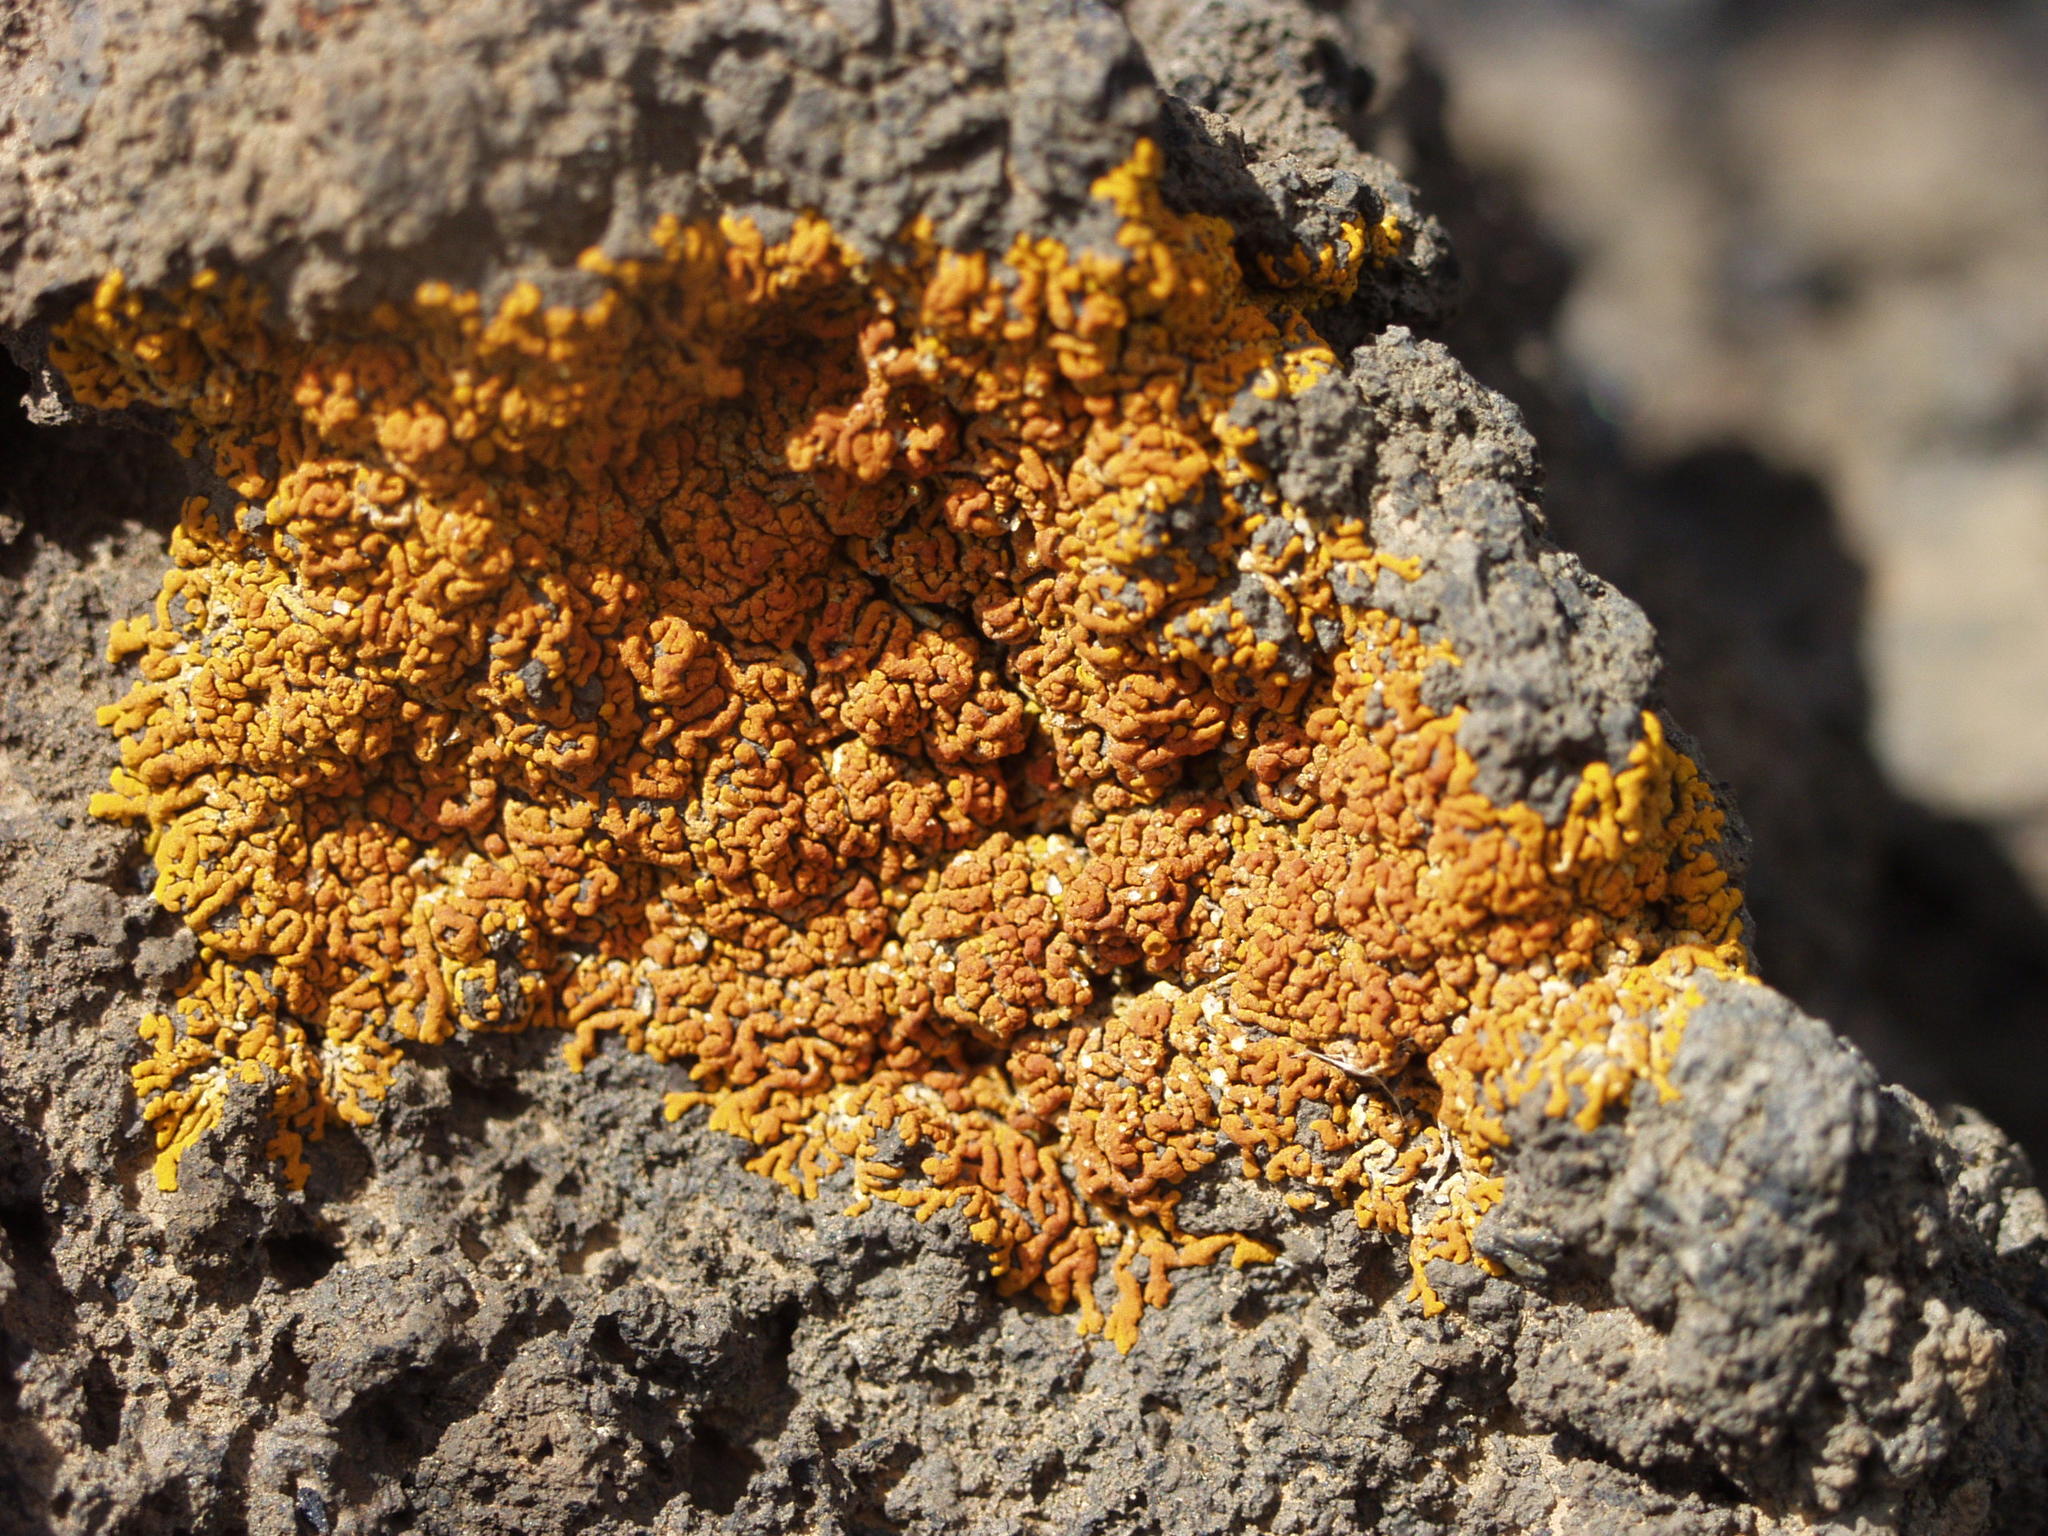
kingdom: Fungi
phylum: Ascomycota
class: Lecanoromycetes
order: Teloschistales
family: Teloschistaceae
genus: Xanthoria
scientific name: Xanthoria elegans
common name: Elegant sunburst lichen
